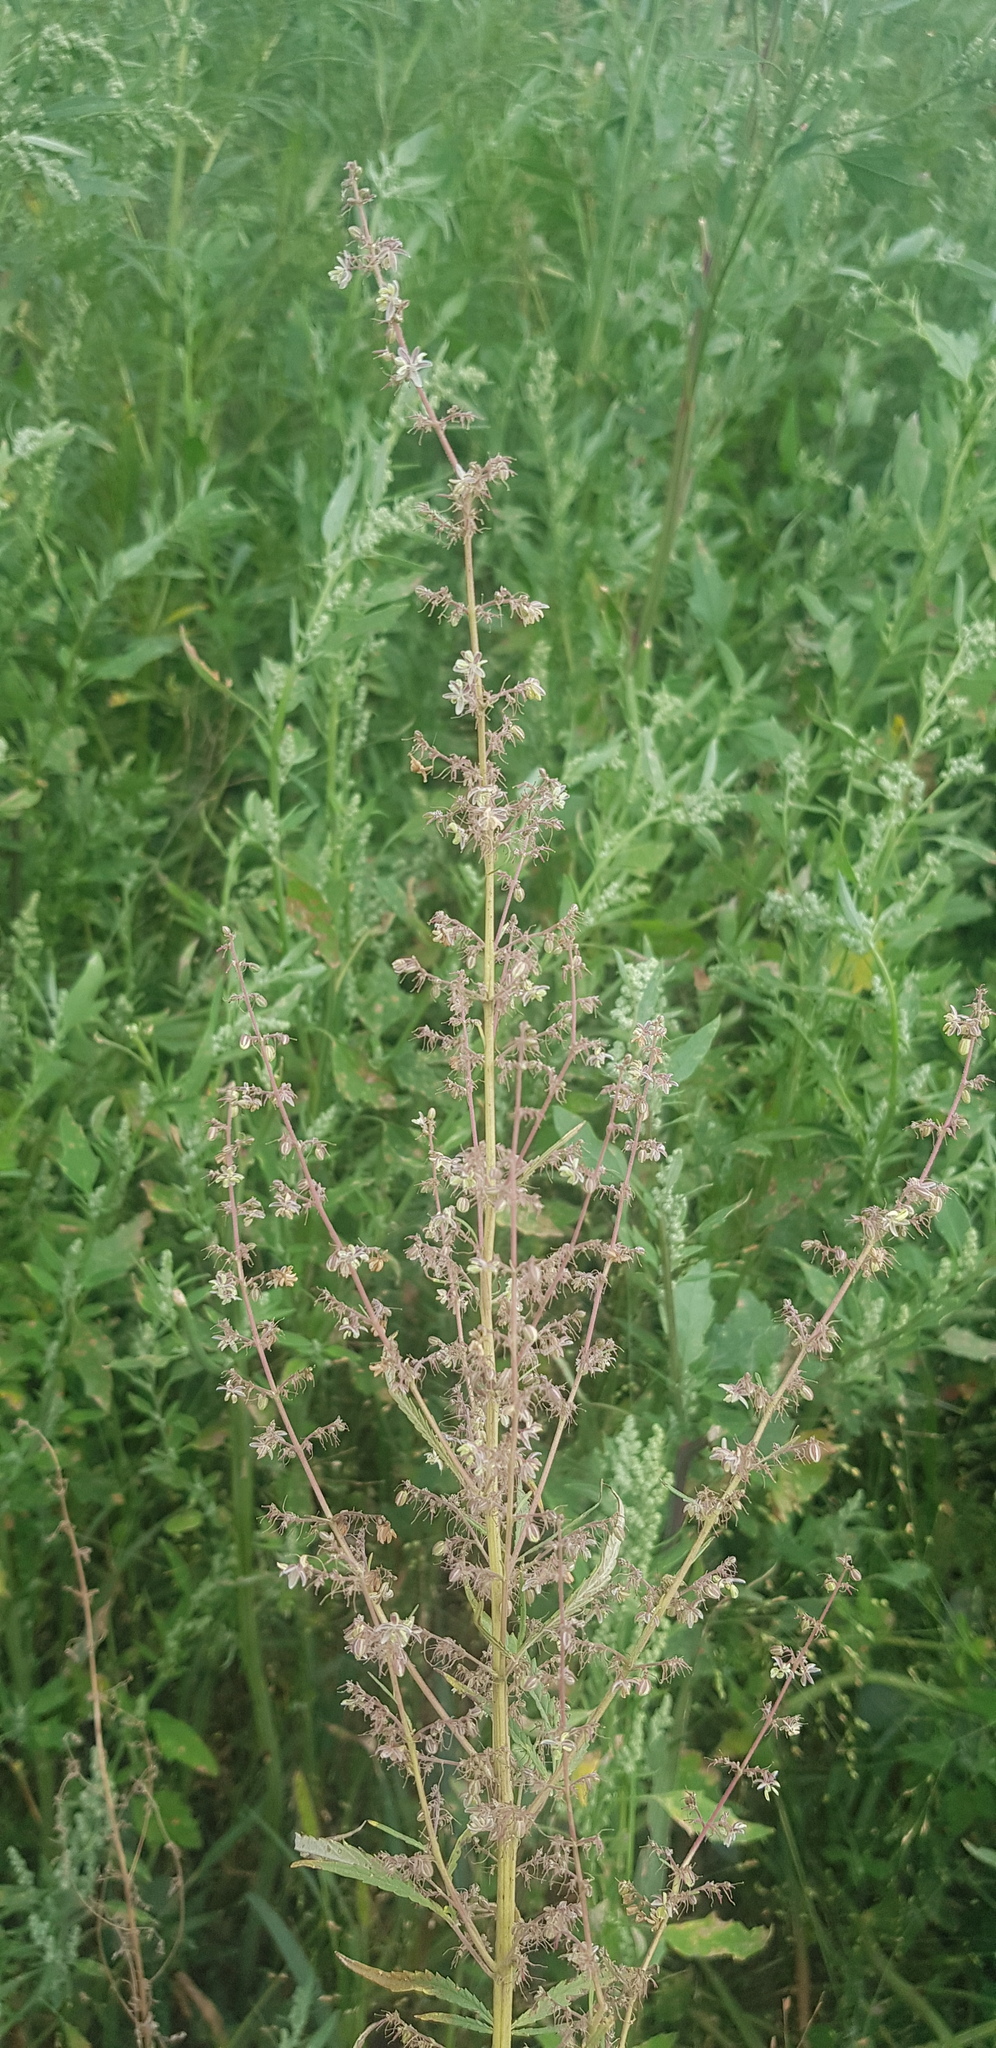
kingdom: Plantae
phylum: Tracheophyta
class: Magnoliopsida
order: Rosales
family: Cannabaceae
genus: Cannabis
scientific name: Cannabis sativa
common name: Hemp
